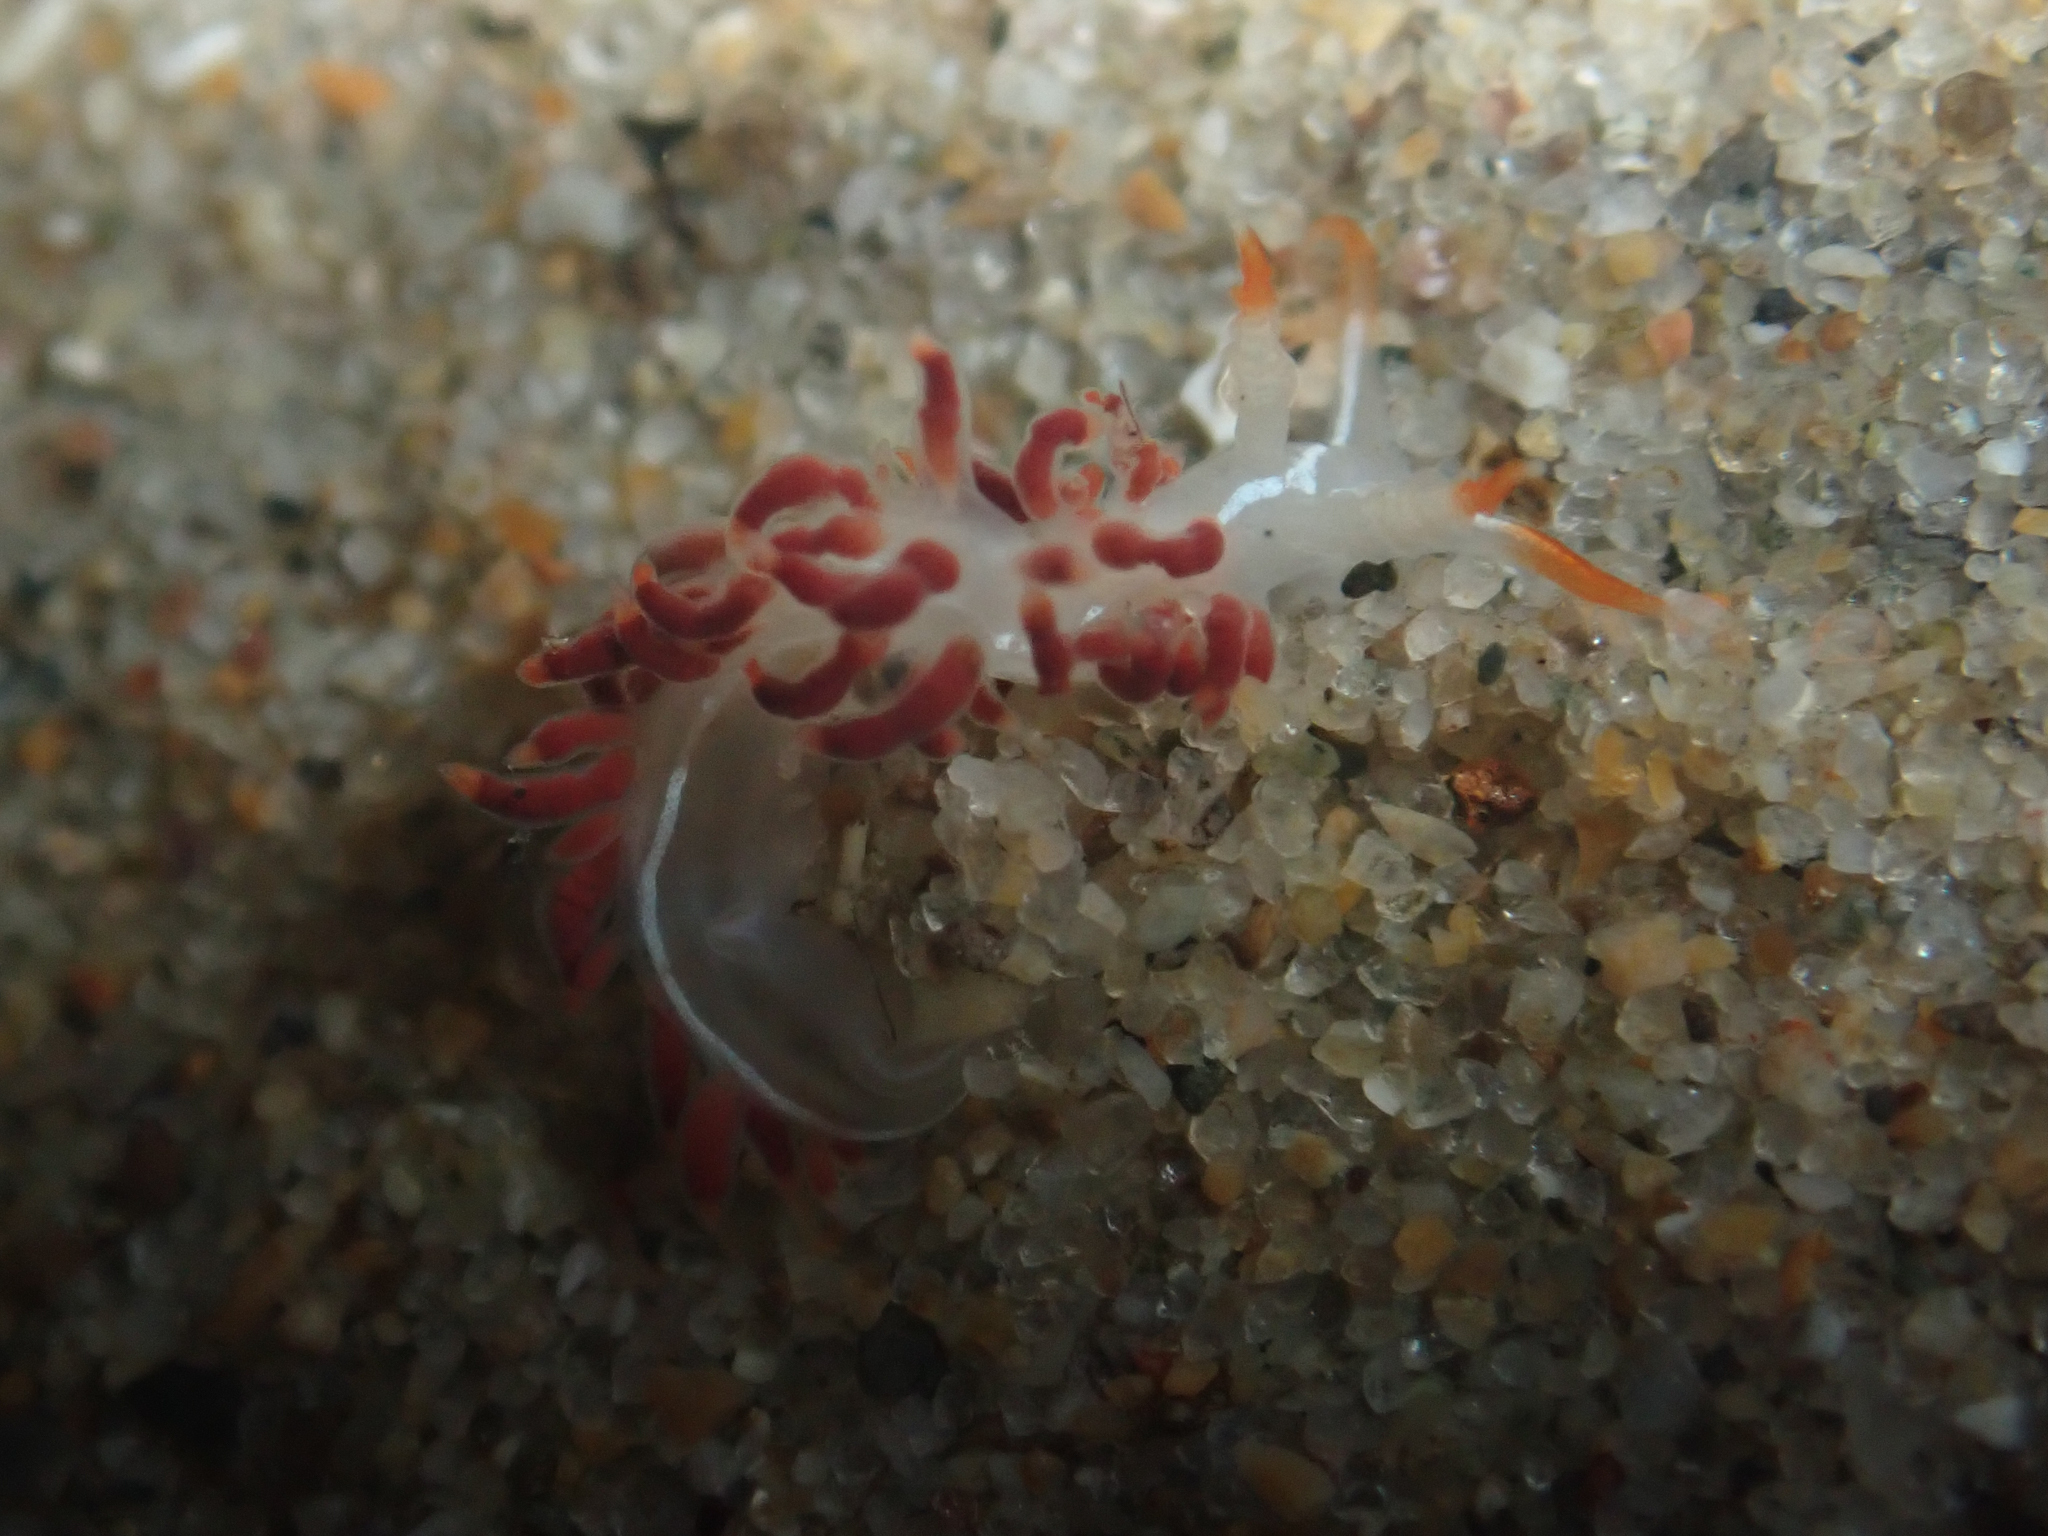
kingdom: Animalia
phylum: Mollusca
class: Gastropoda
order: Nudibranchia
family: Coryphellidae
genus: Coryphella
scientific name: Coryphella trilineata
